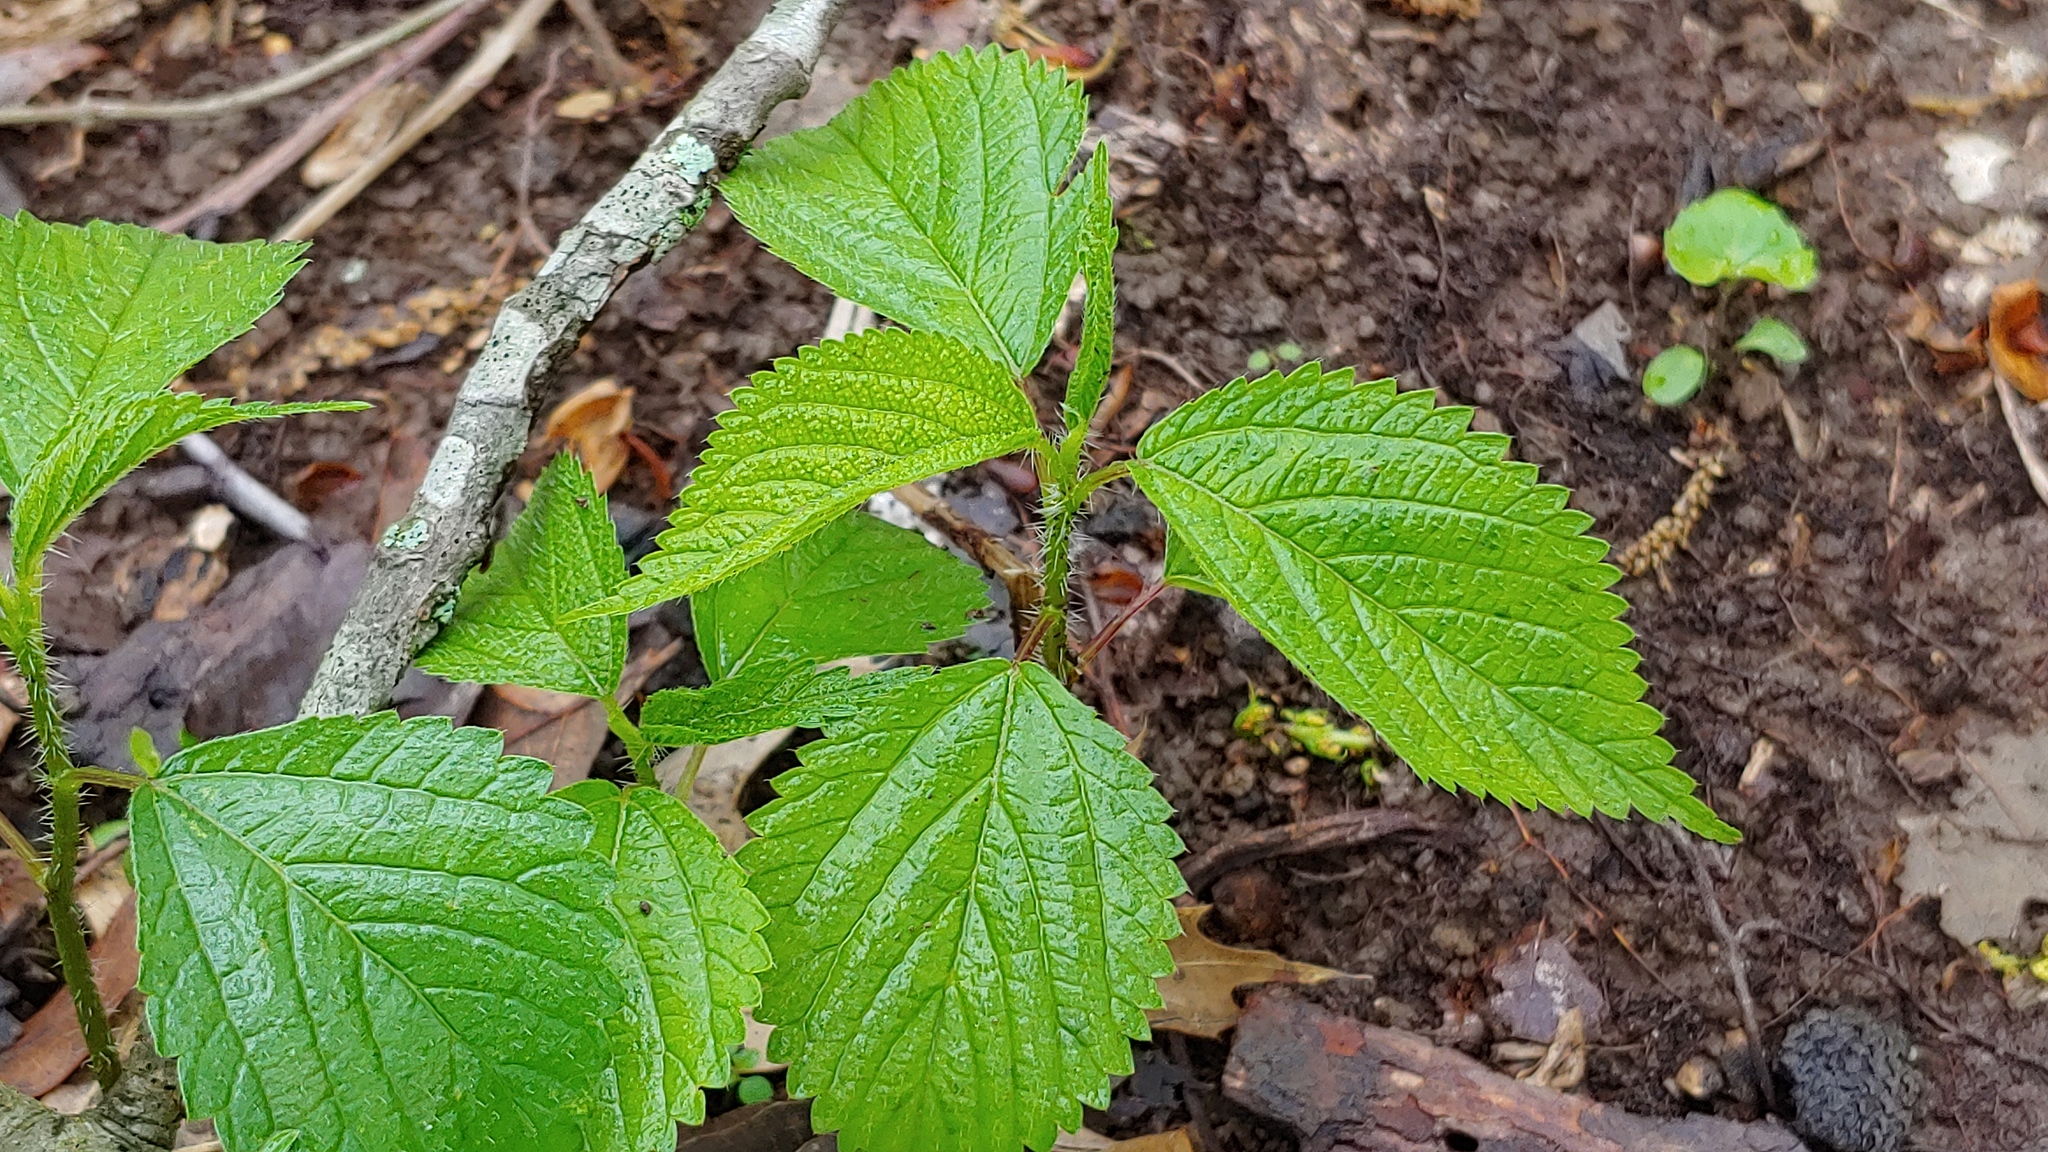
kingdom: Plantae
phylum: Tracheophyta
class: Magnoliopsida
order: Rosales
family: Urticaceae
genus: Laportea
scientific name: Laportea canadensis
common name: Canada nettle
